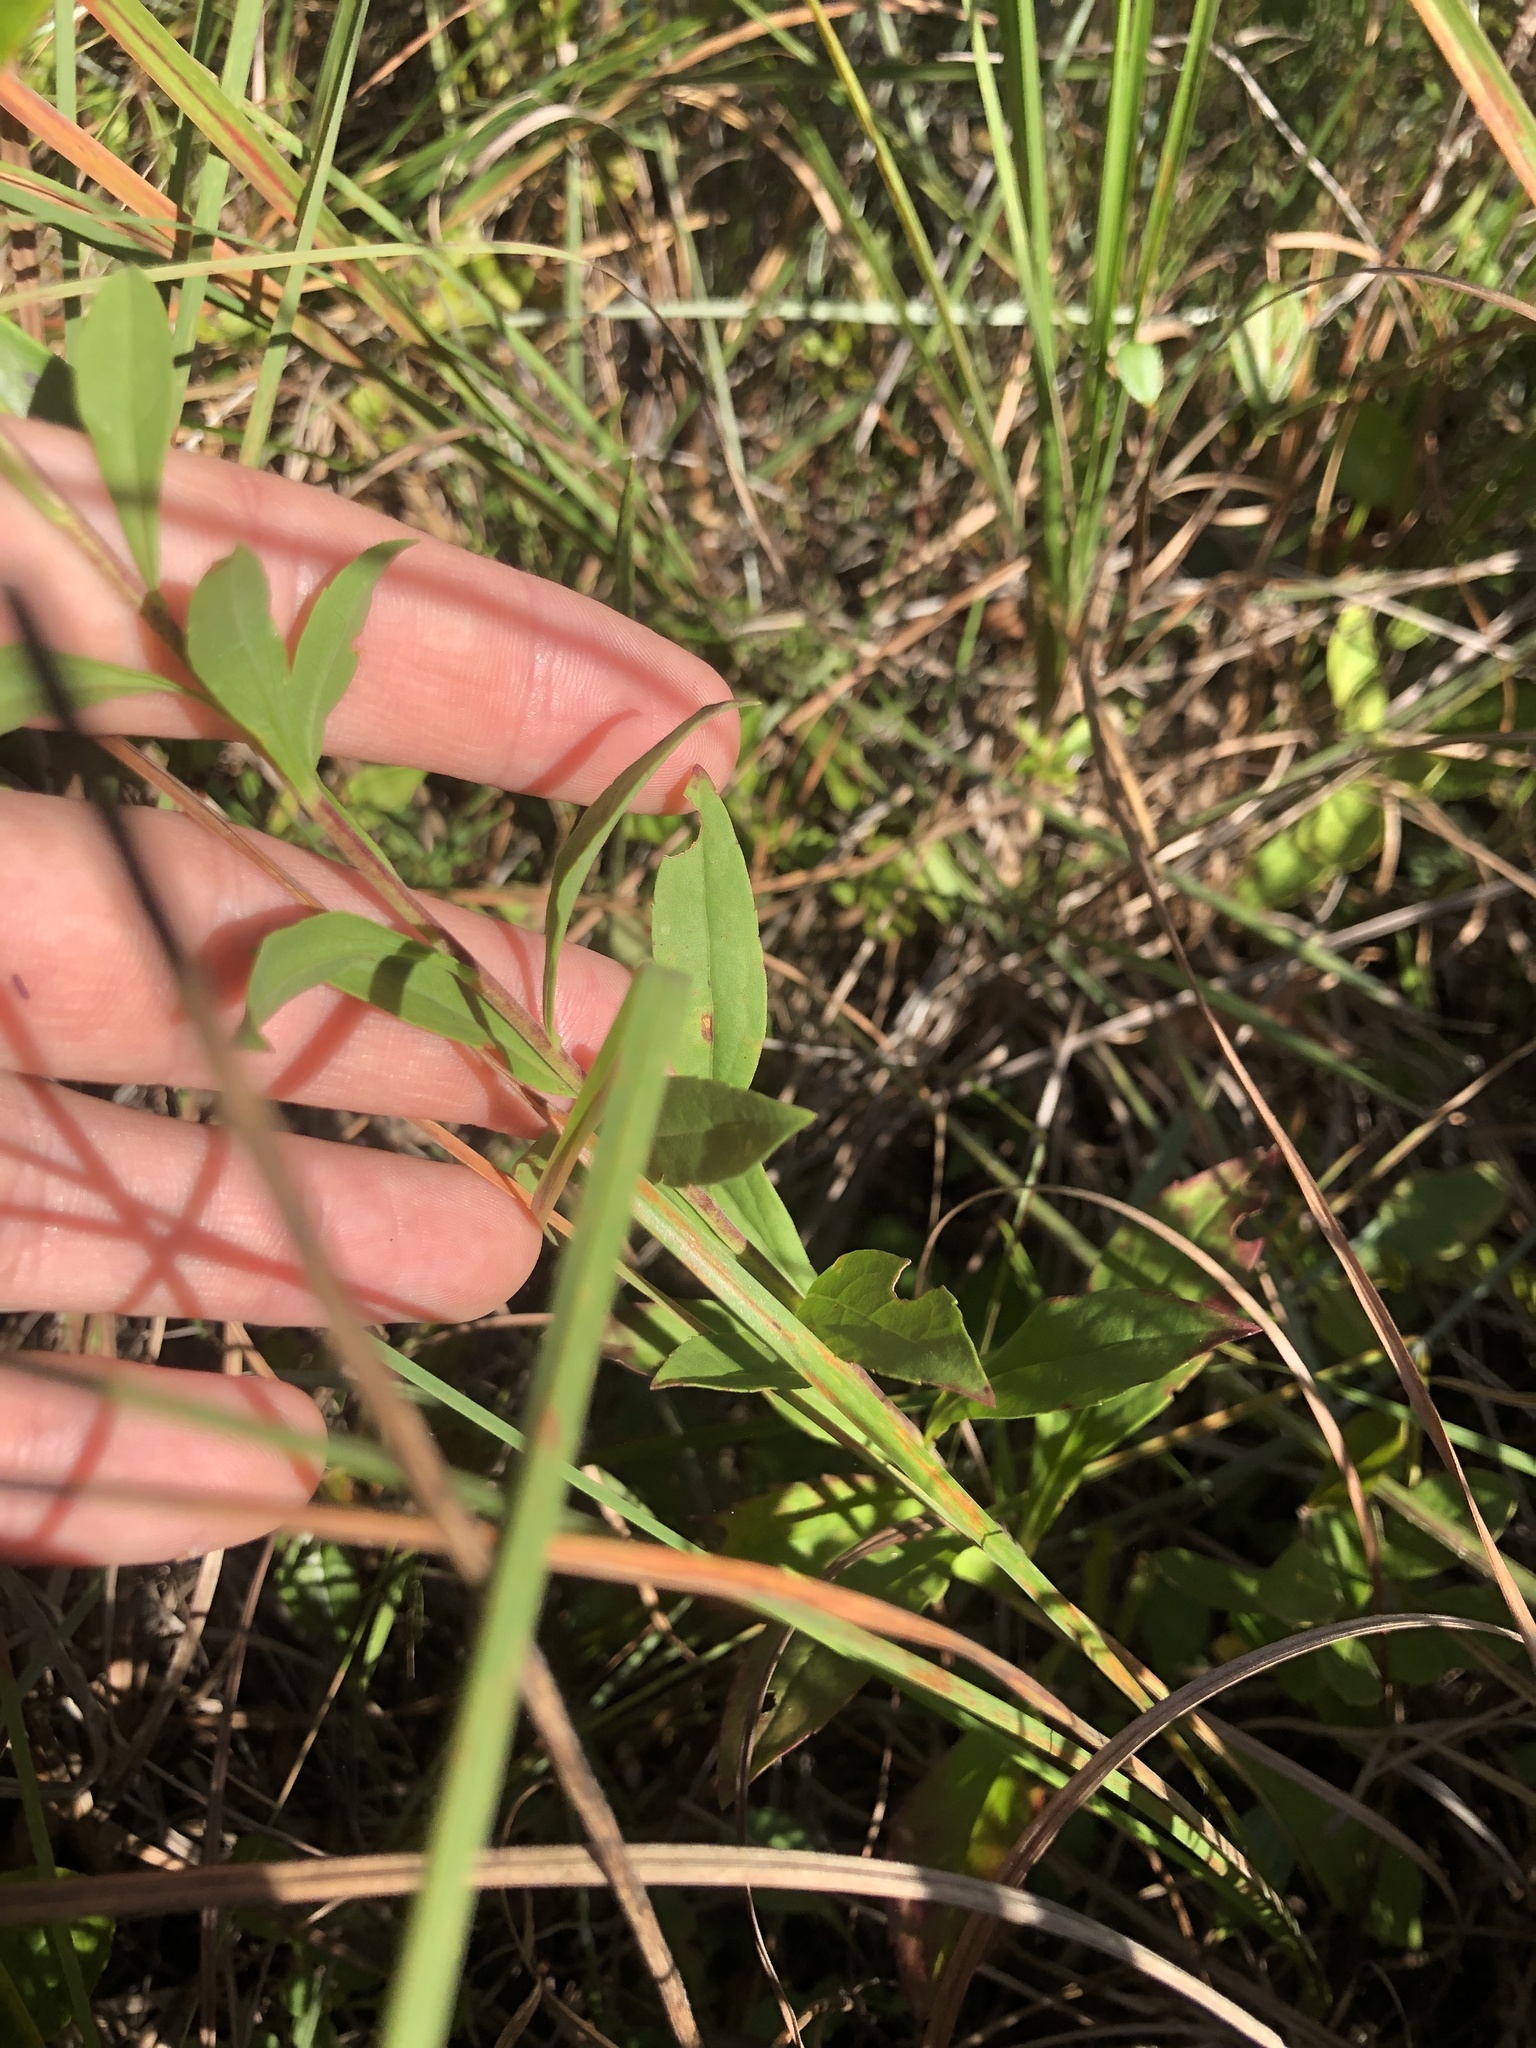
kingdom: Plantae
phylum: Tracheophyta
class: Magnoliopsida
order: Asterales
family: Asteraceae
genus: Solidago
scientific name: Solidago pulverulenta
